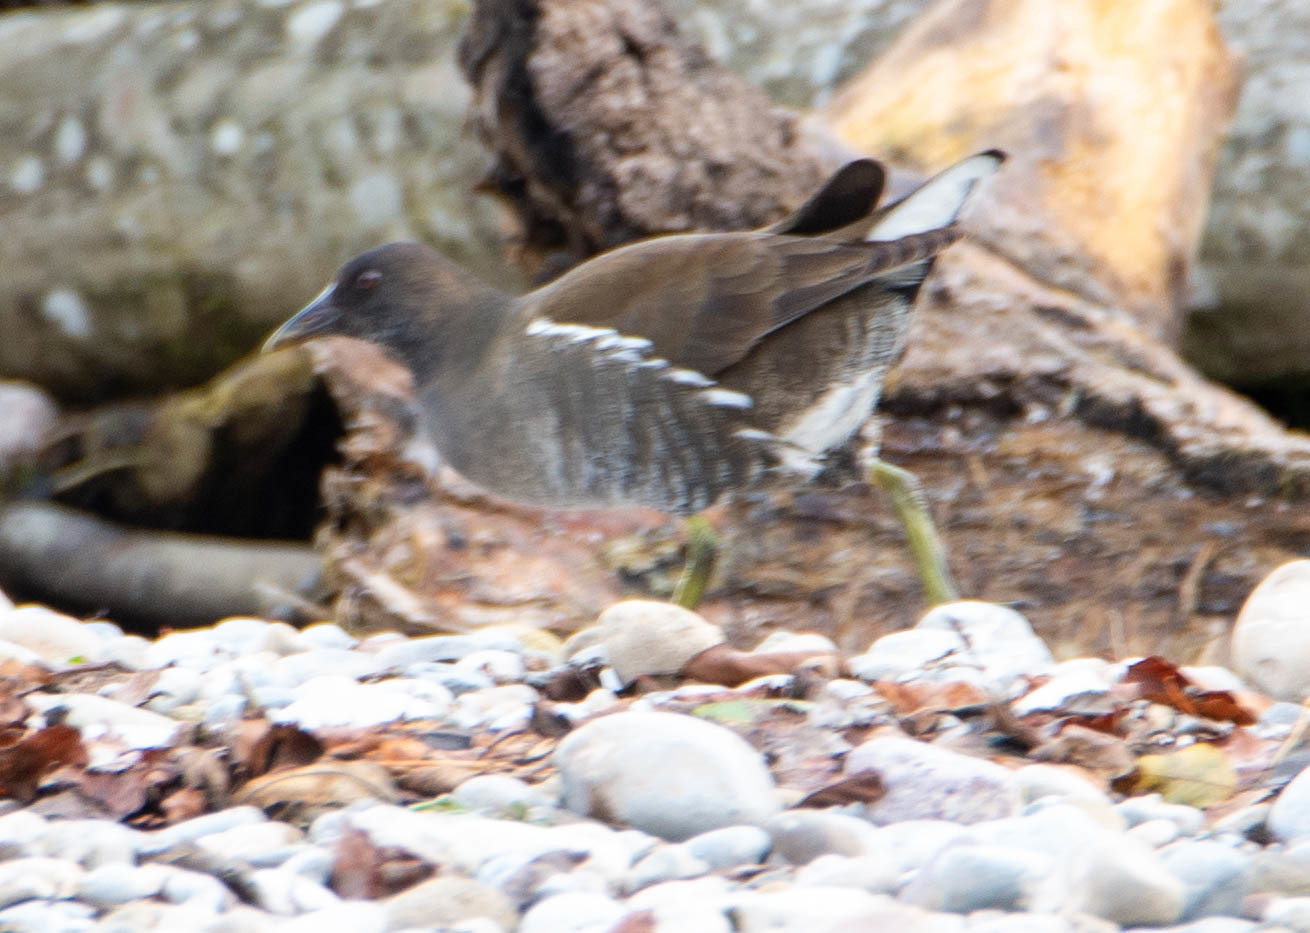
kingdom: Animalia
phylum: Chordata
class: Aves
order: Gruiformes
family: Rallidae
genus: Gallinula
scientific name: Gallinula chloropus
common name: Common moorhen
